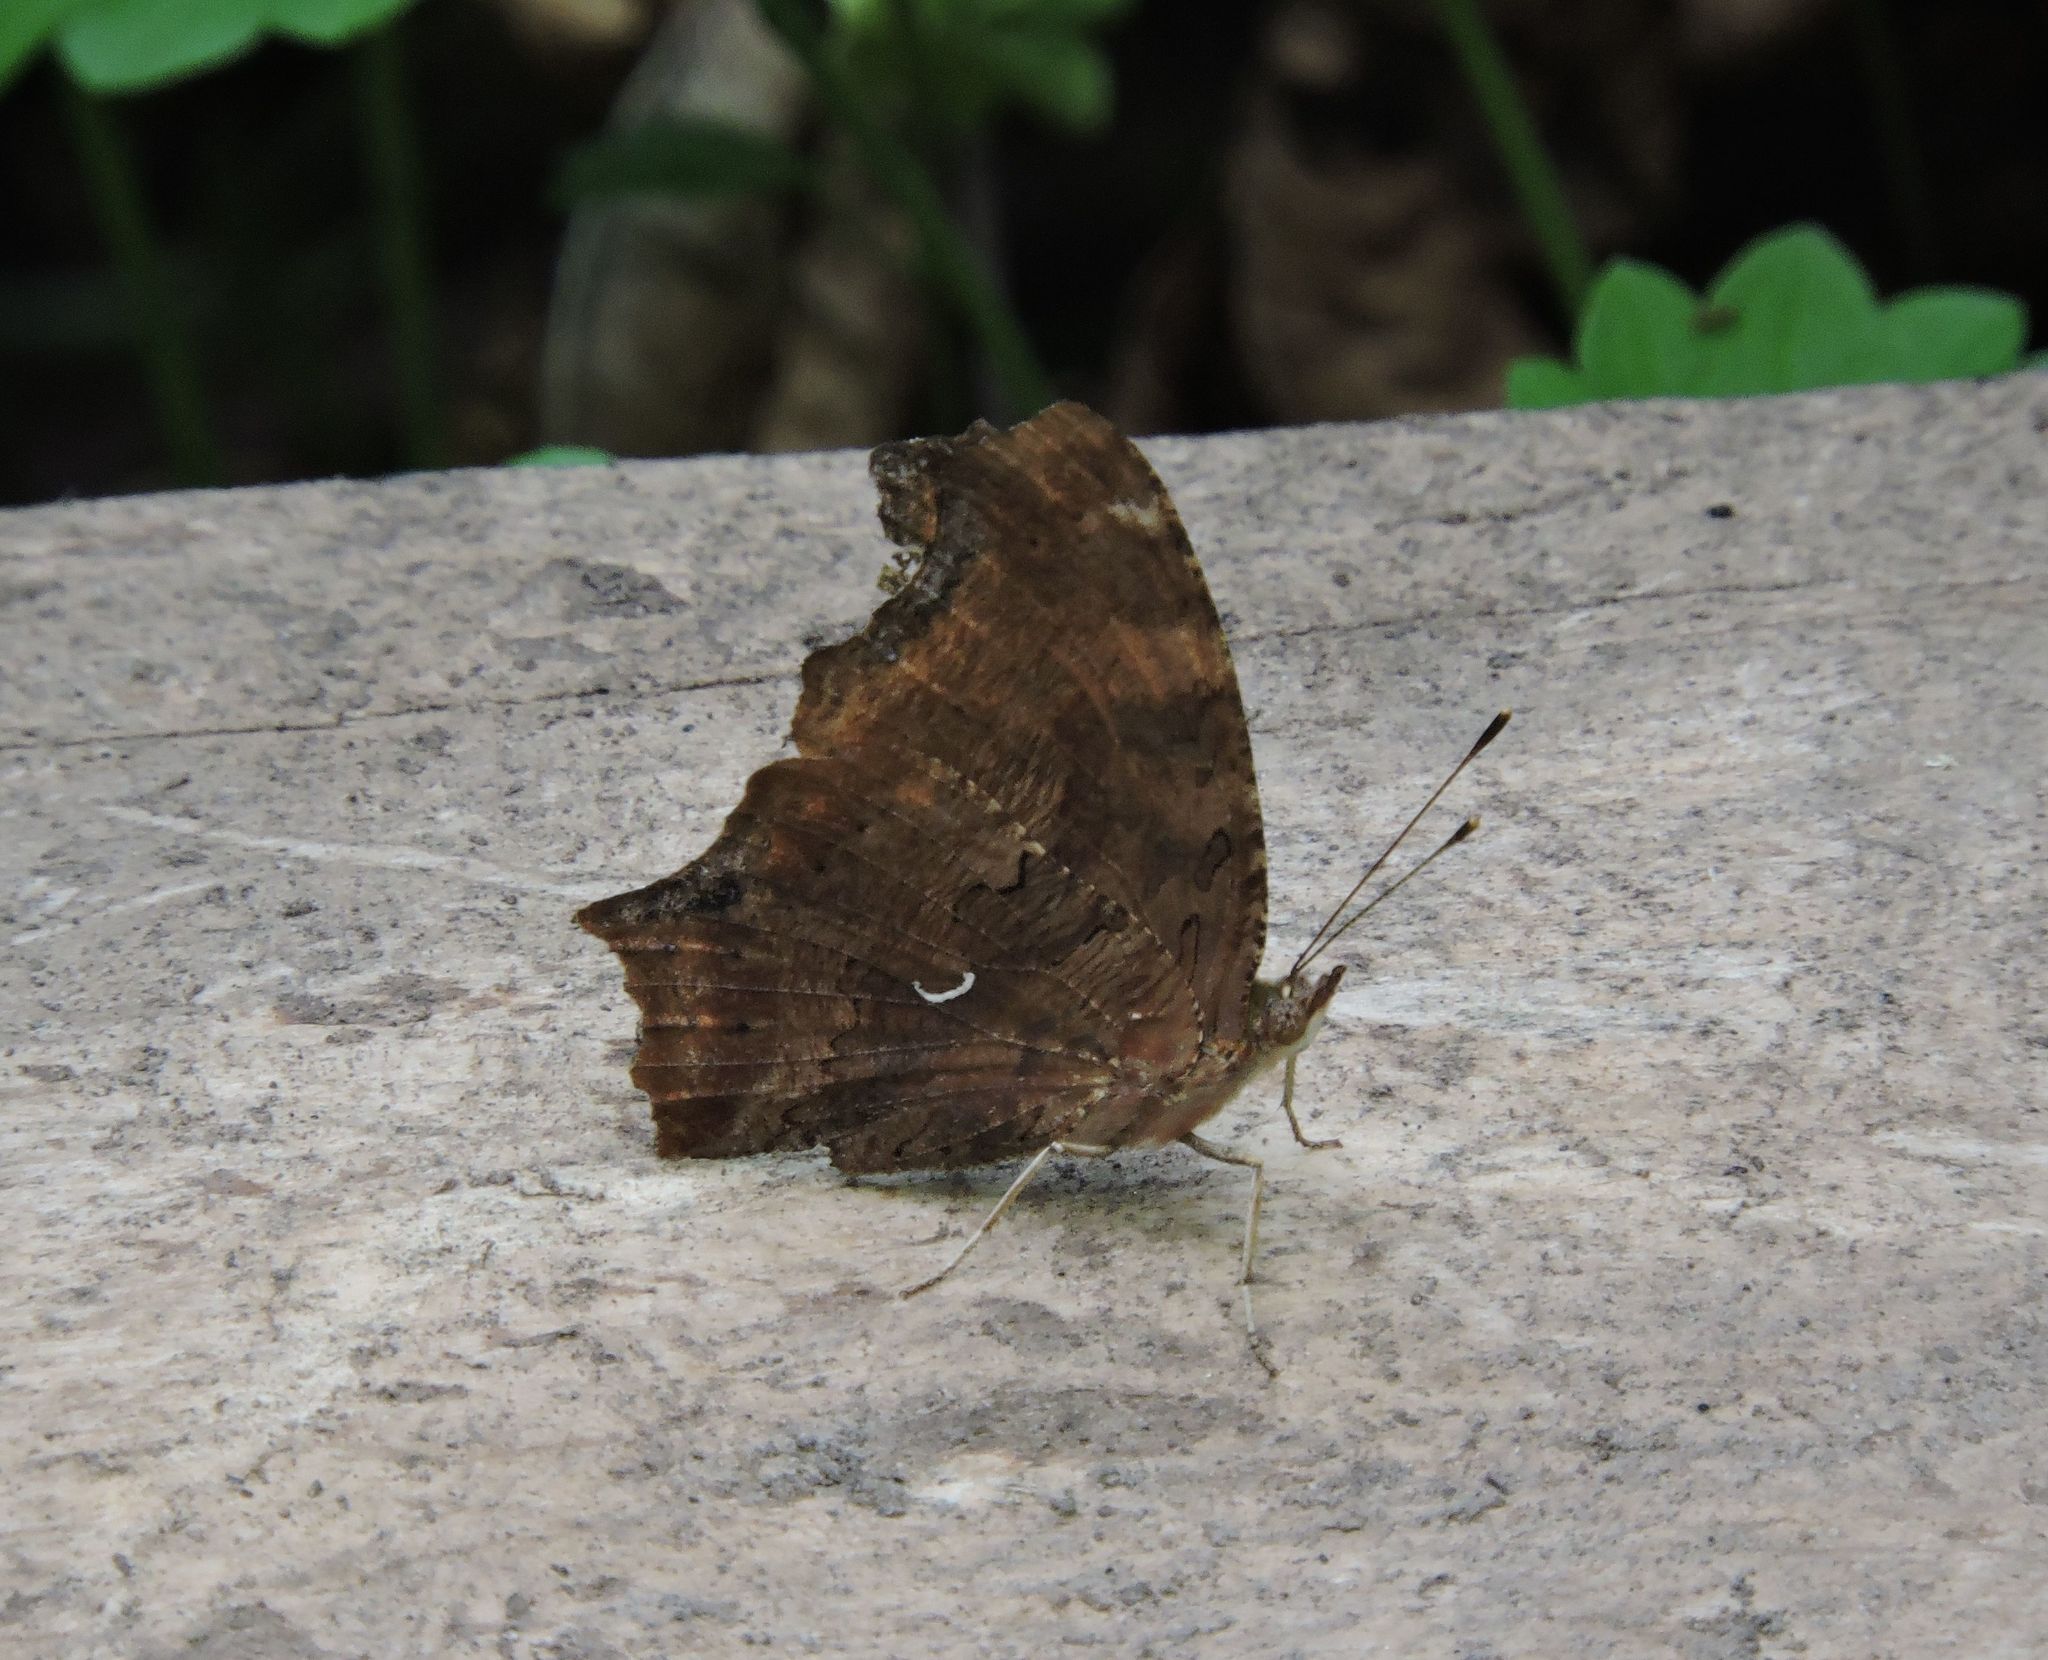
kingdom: Animalia
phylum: Arthropoda
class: Insecta
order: Lepidoptera
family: Nymphalidae
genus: Polygonia
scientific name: Polygonia comma
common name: Eastern comma
